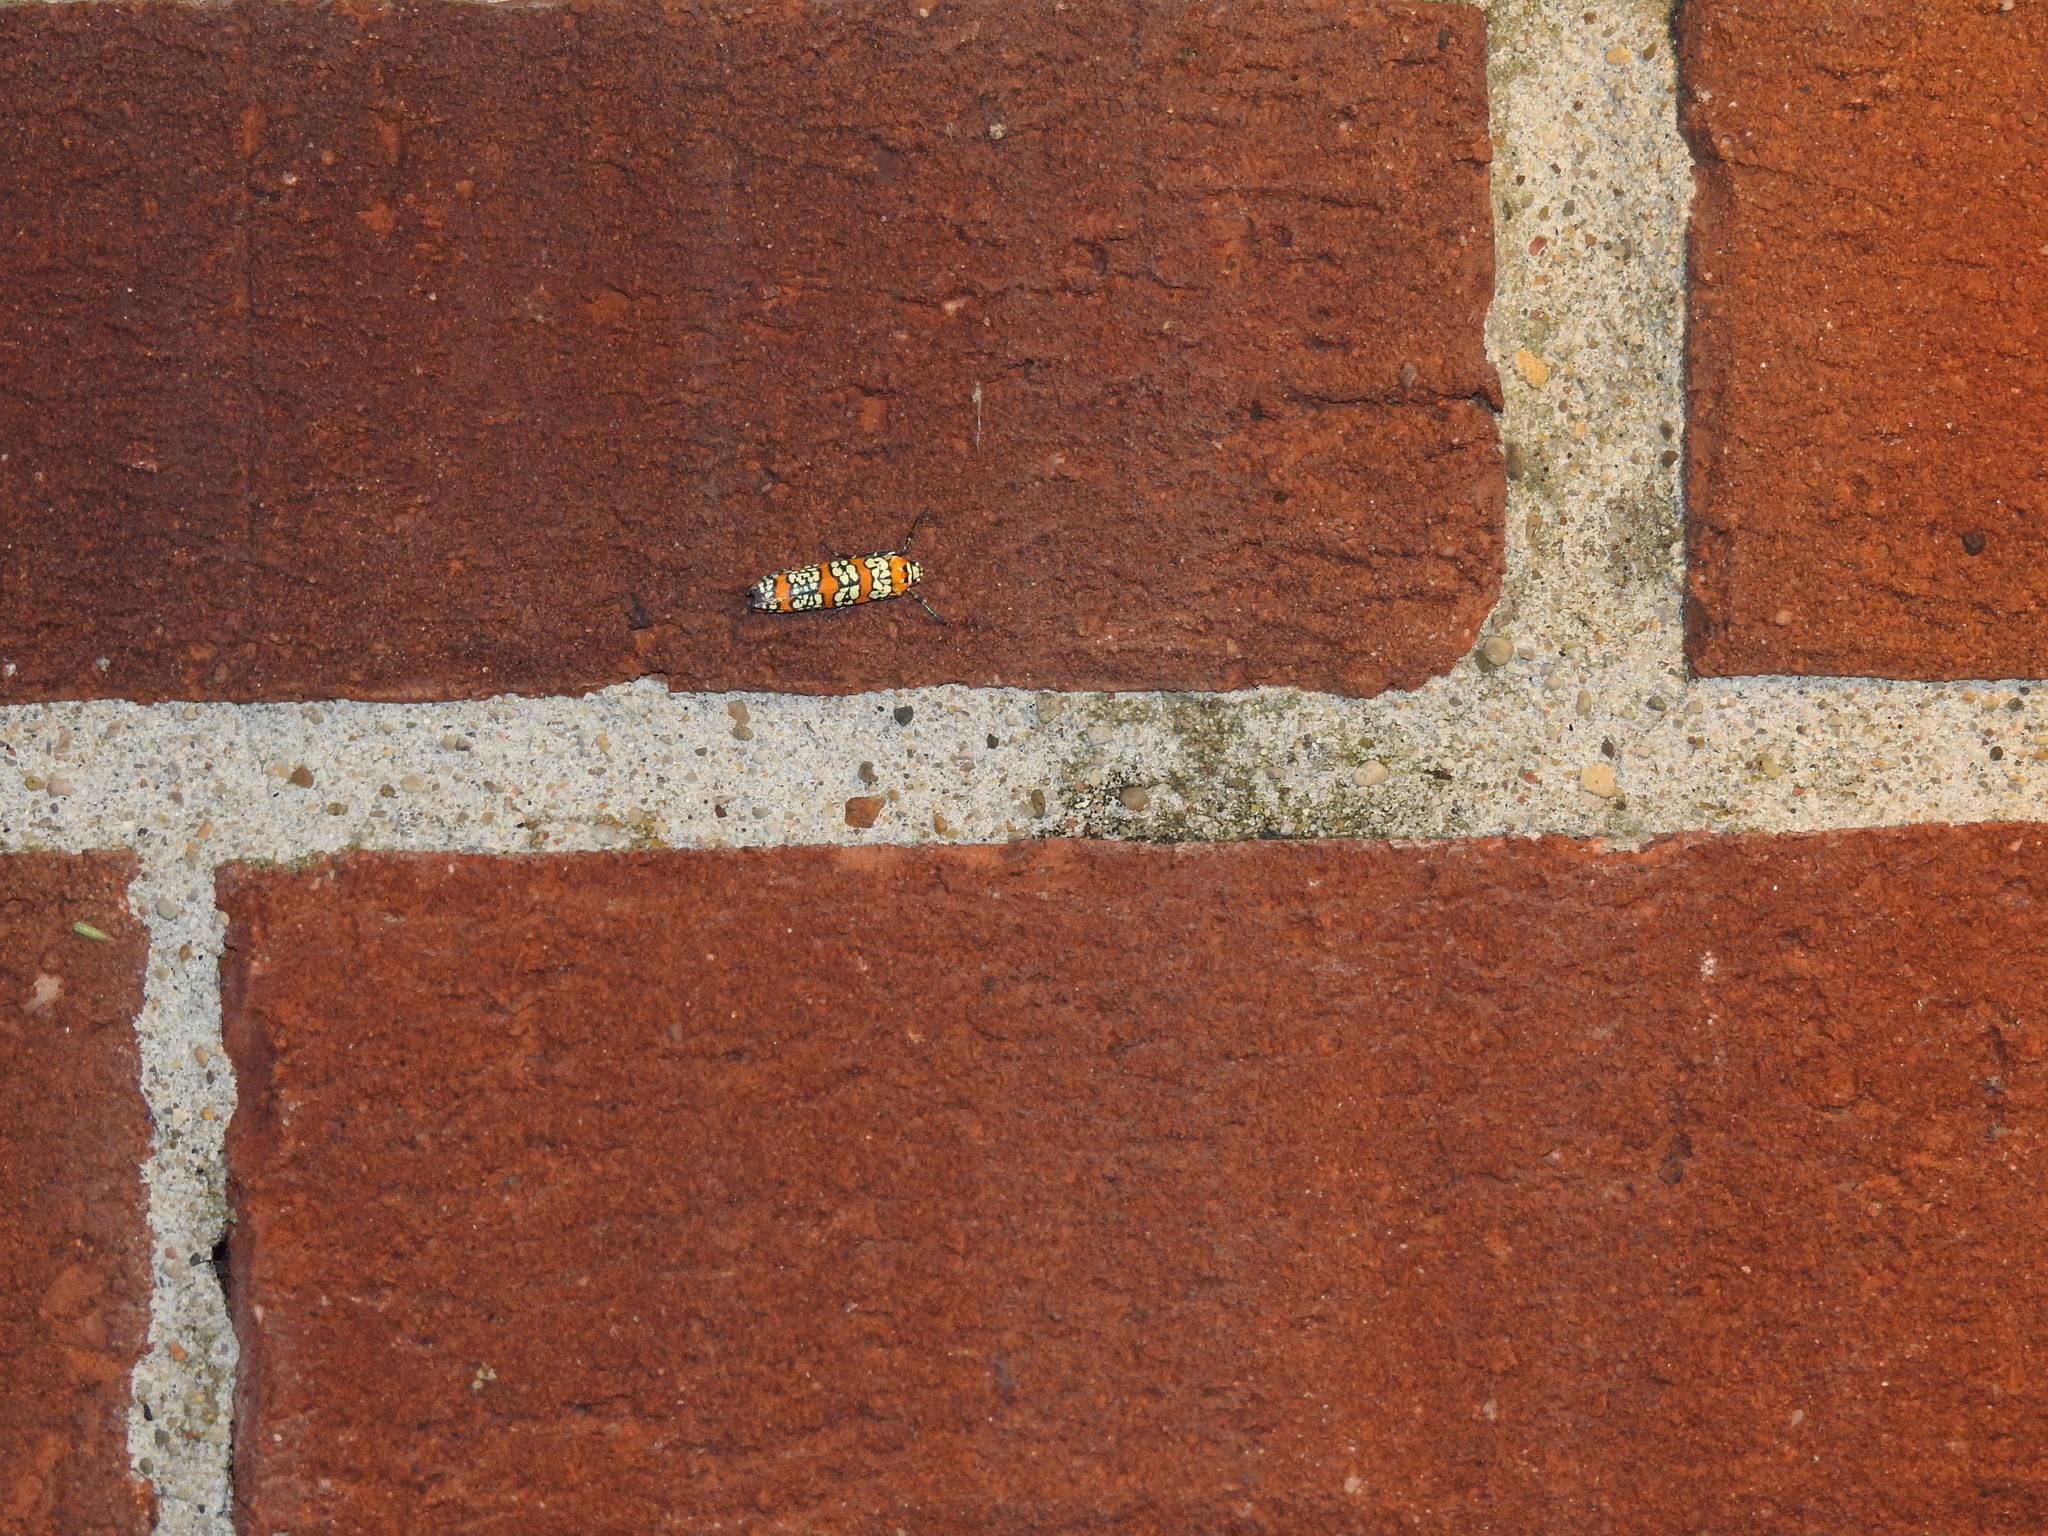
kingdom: Animalia
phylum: Arthropoda
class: Insecta
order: Lepidoptera
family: Attevidae
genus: Atteva
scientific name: Atteva punctella
